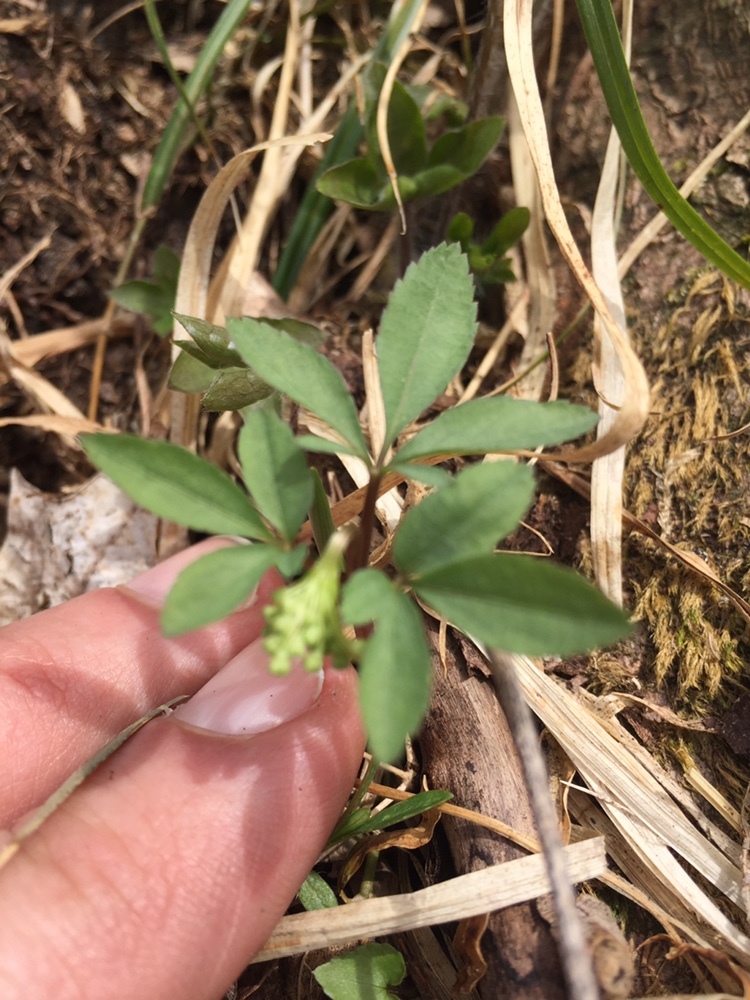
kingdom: Plantae
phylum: Tracheophyta
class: Magnoliopsida
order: Apiales
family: Araliaceae
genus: Panax
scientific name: Panax trifolius
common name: Dwarf ginseng
